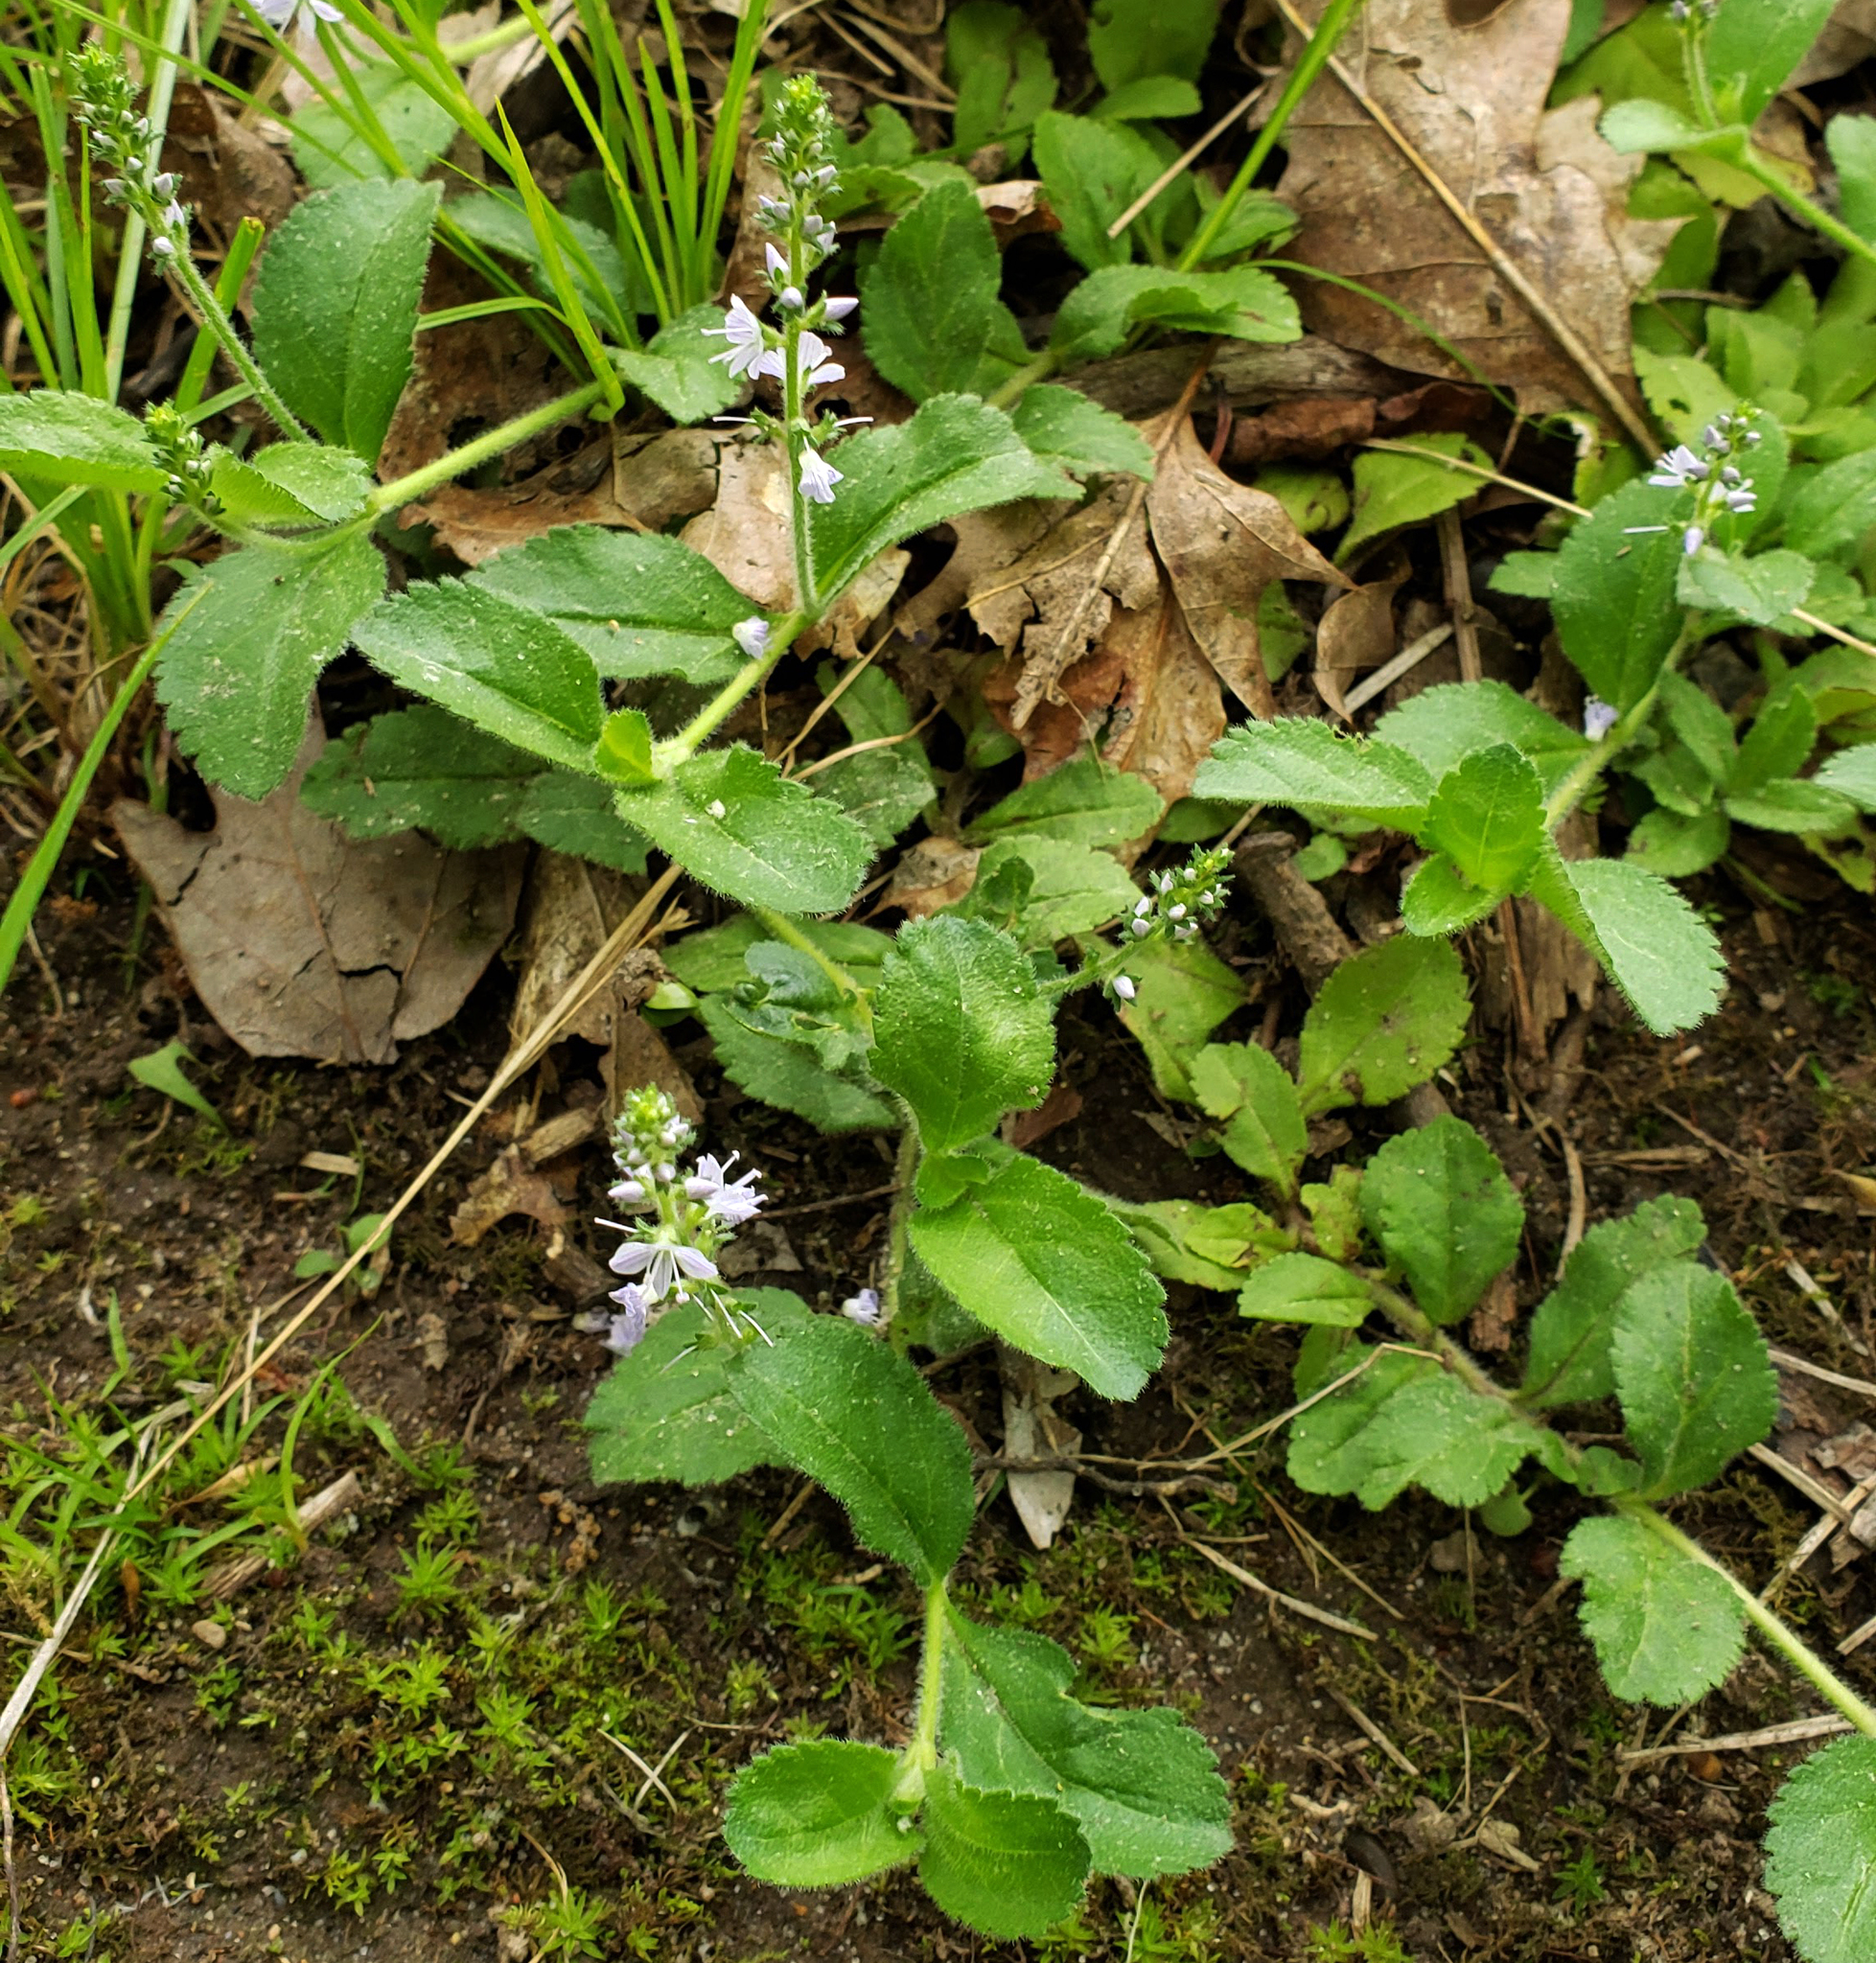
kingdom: Plantae
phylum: Tracheophyta
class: Magnoliopsida
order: Lamiales
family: Plantaginaceae
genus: Veronica
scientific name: Veronica officinalis
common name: Common speedwell
